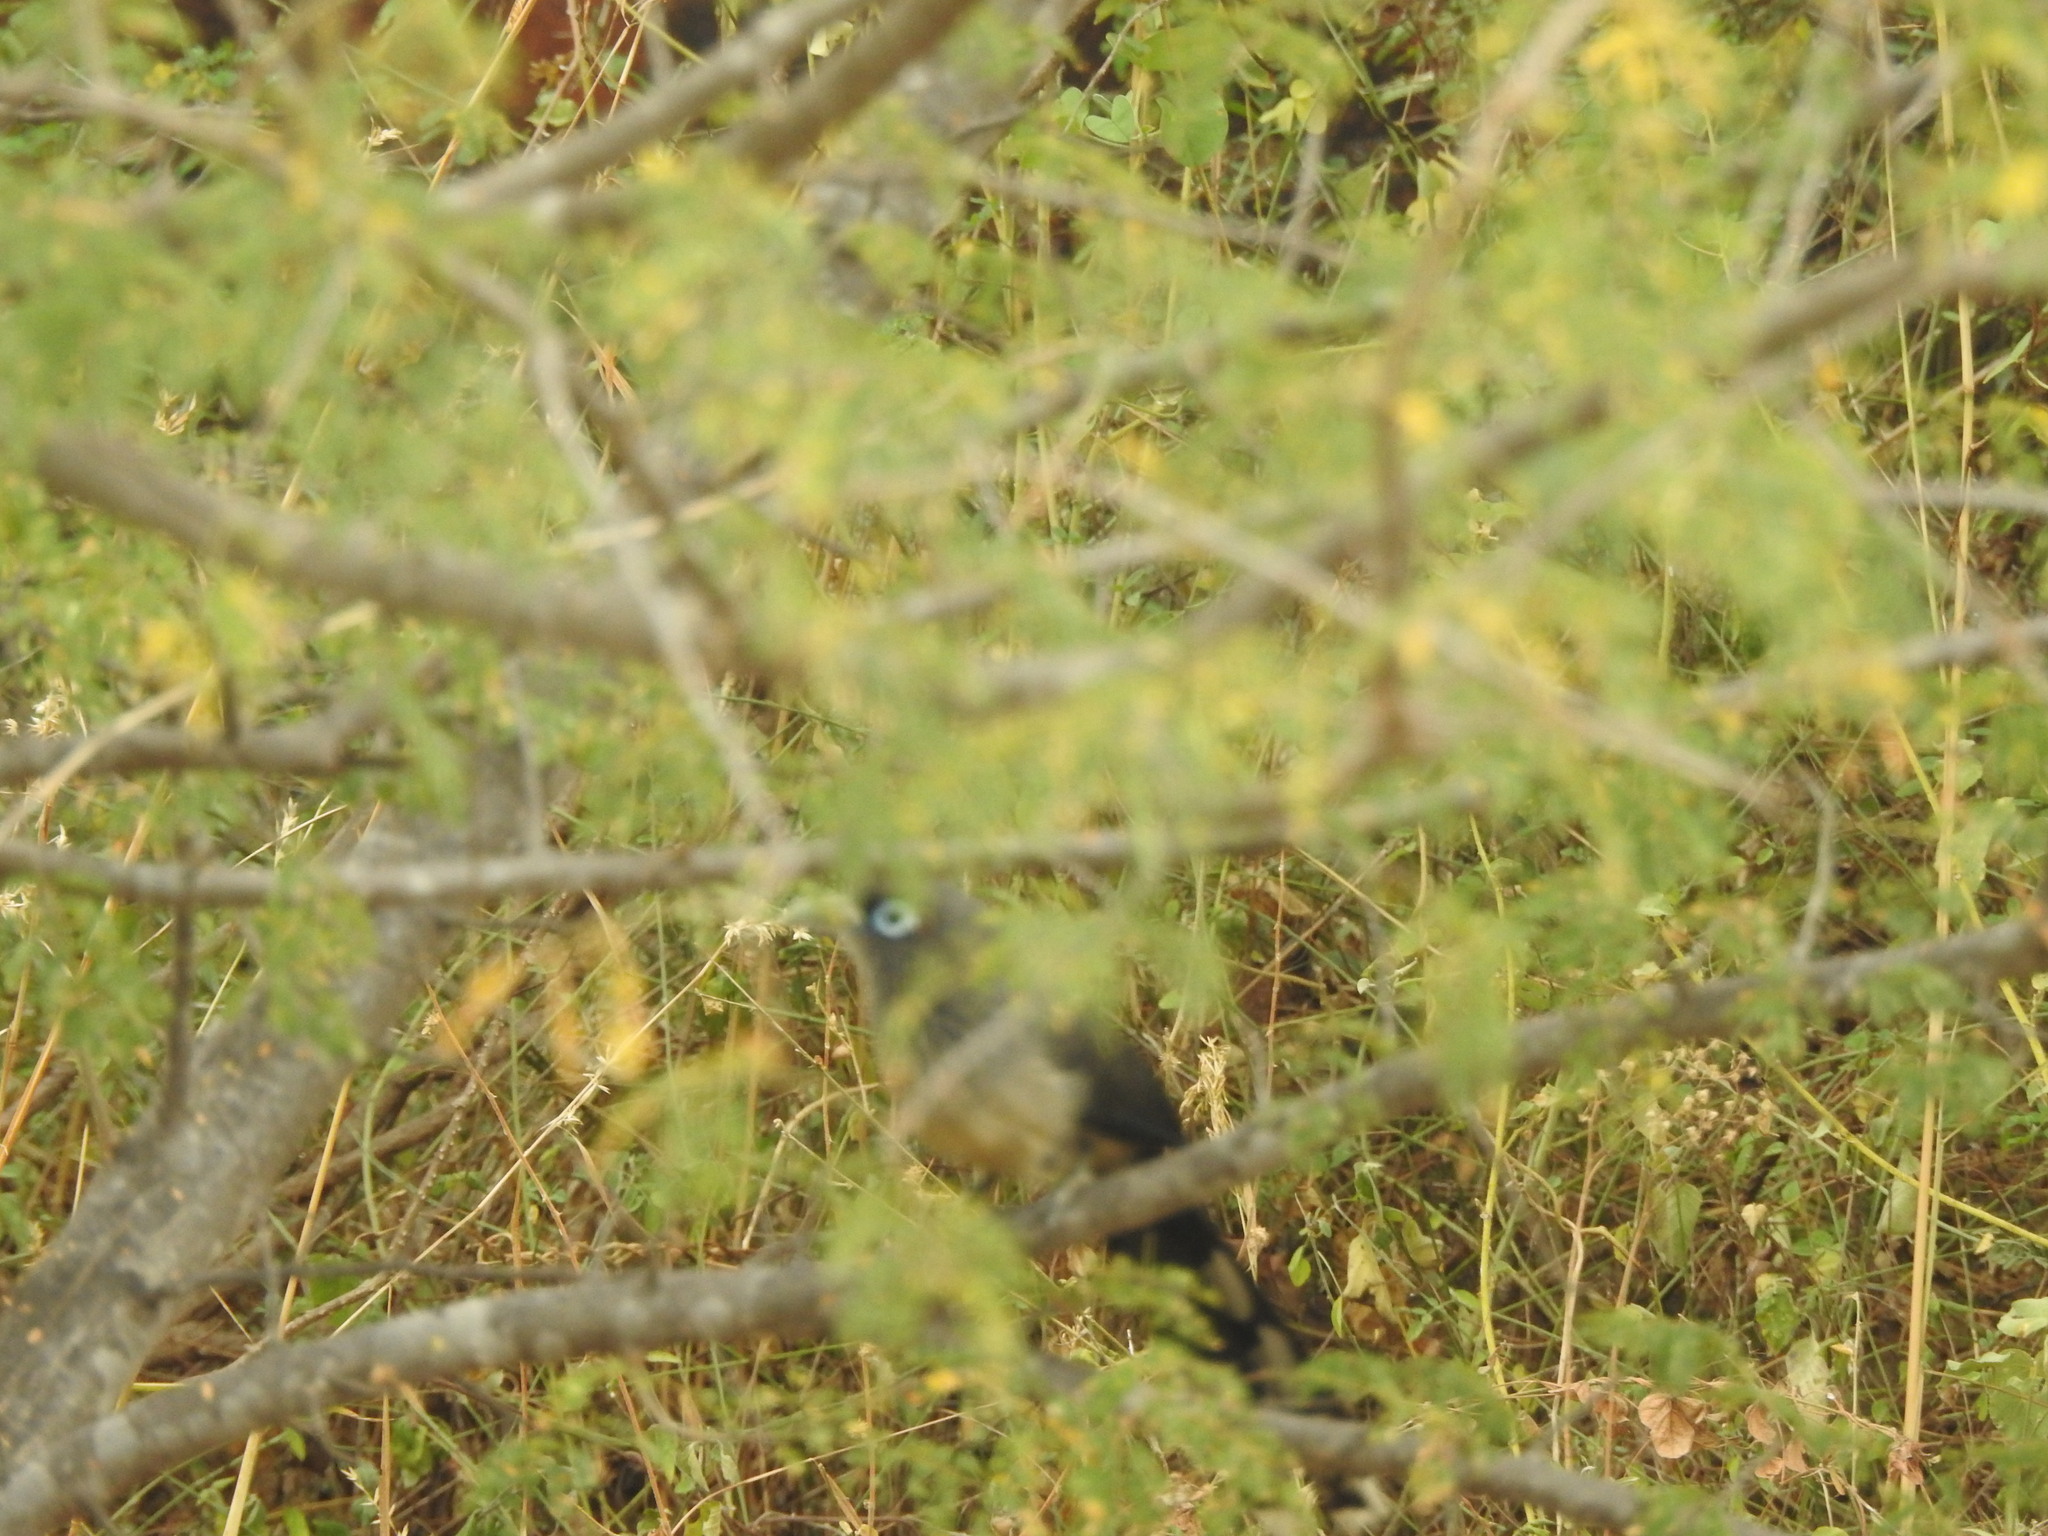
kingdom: Animalia
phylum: Chordata
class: Aves
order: Cuculiformes
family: Cuculidae
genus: Rhopodytes
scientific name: Rhopodytes viridirostris
